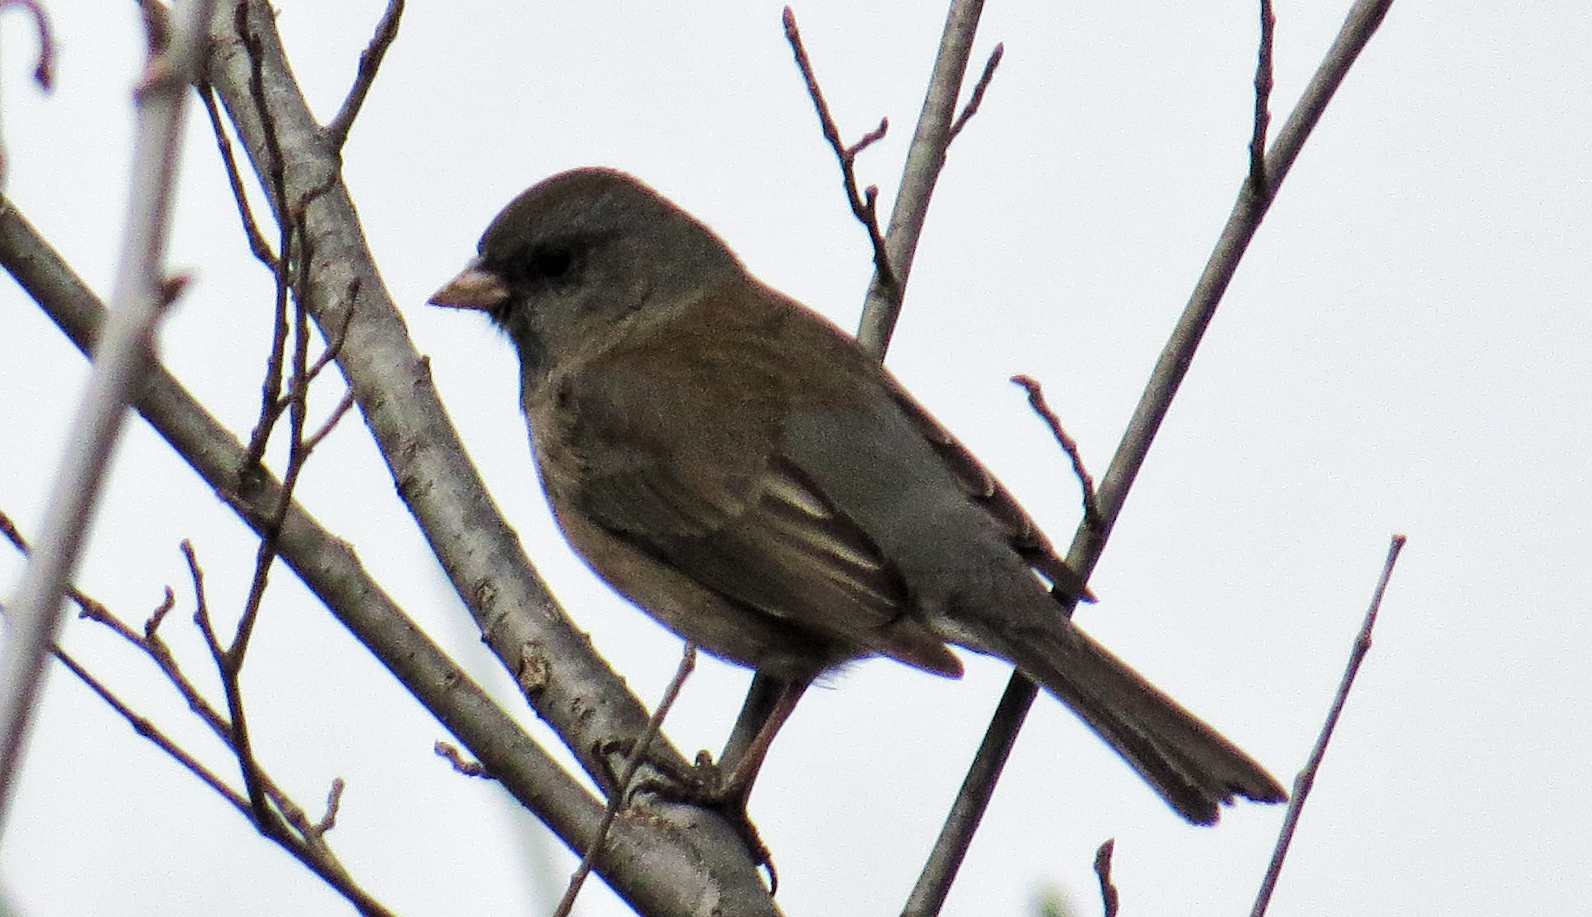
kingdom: Animalia
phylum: Chordata
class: Aves
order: Passeriformes
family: Passerellidae
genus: Junco
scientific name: Junco hyemalis
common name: Dark-eyed junco
